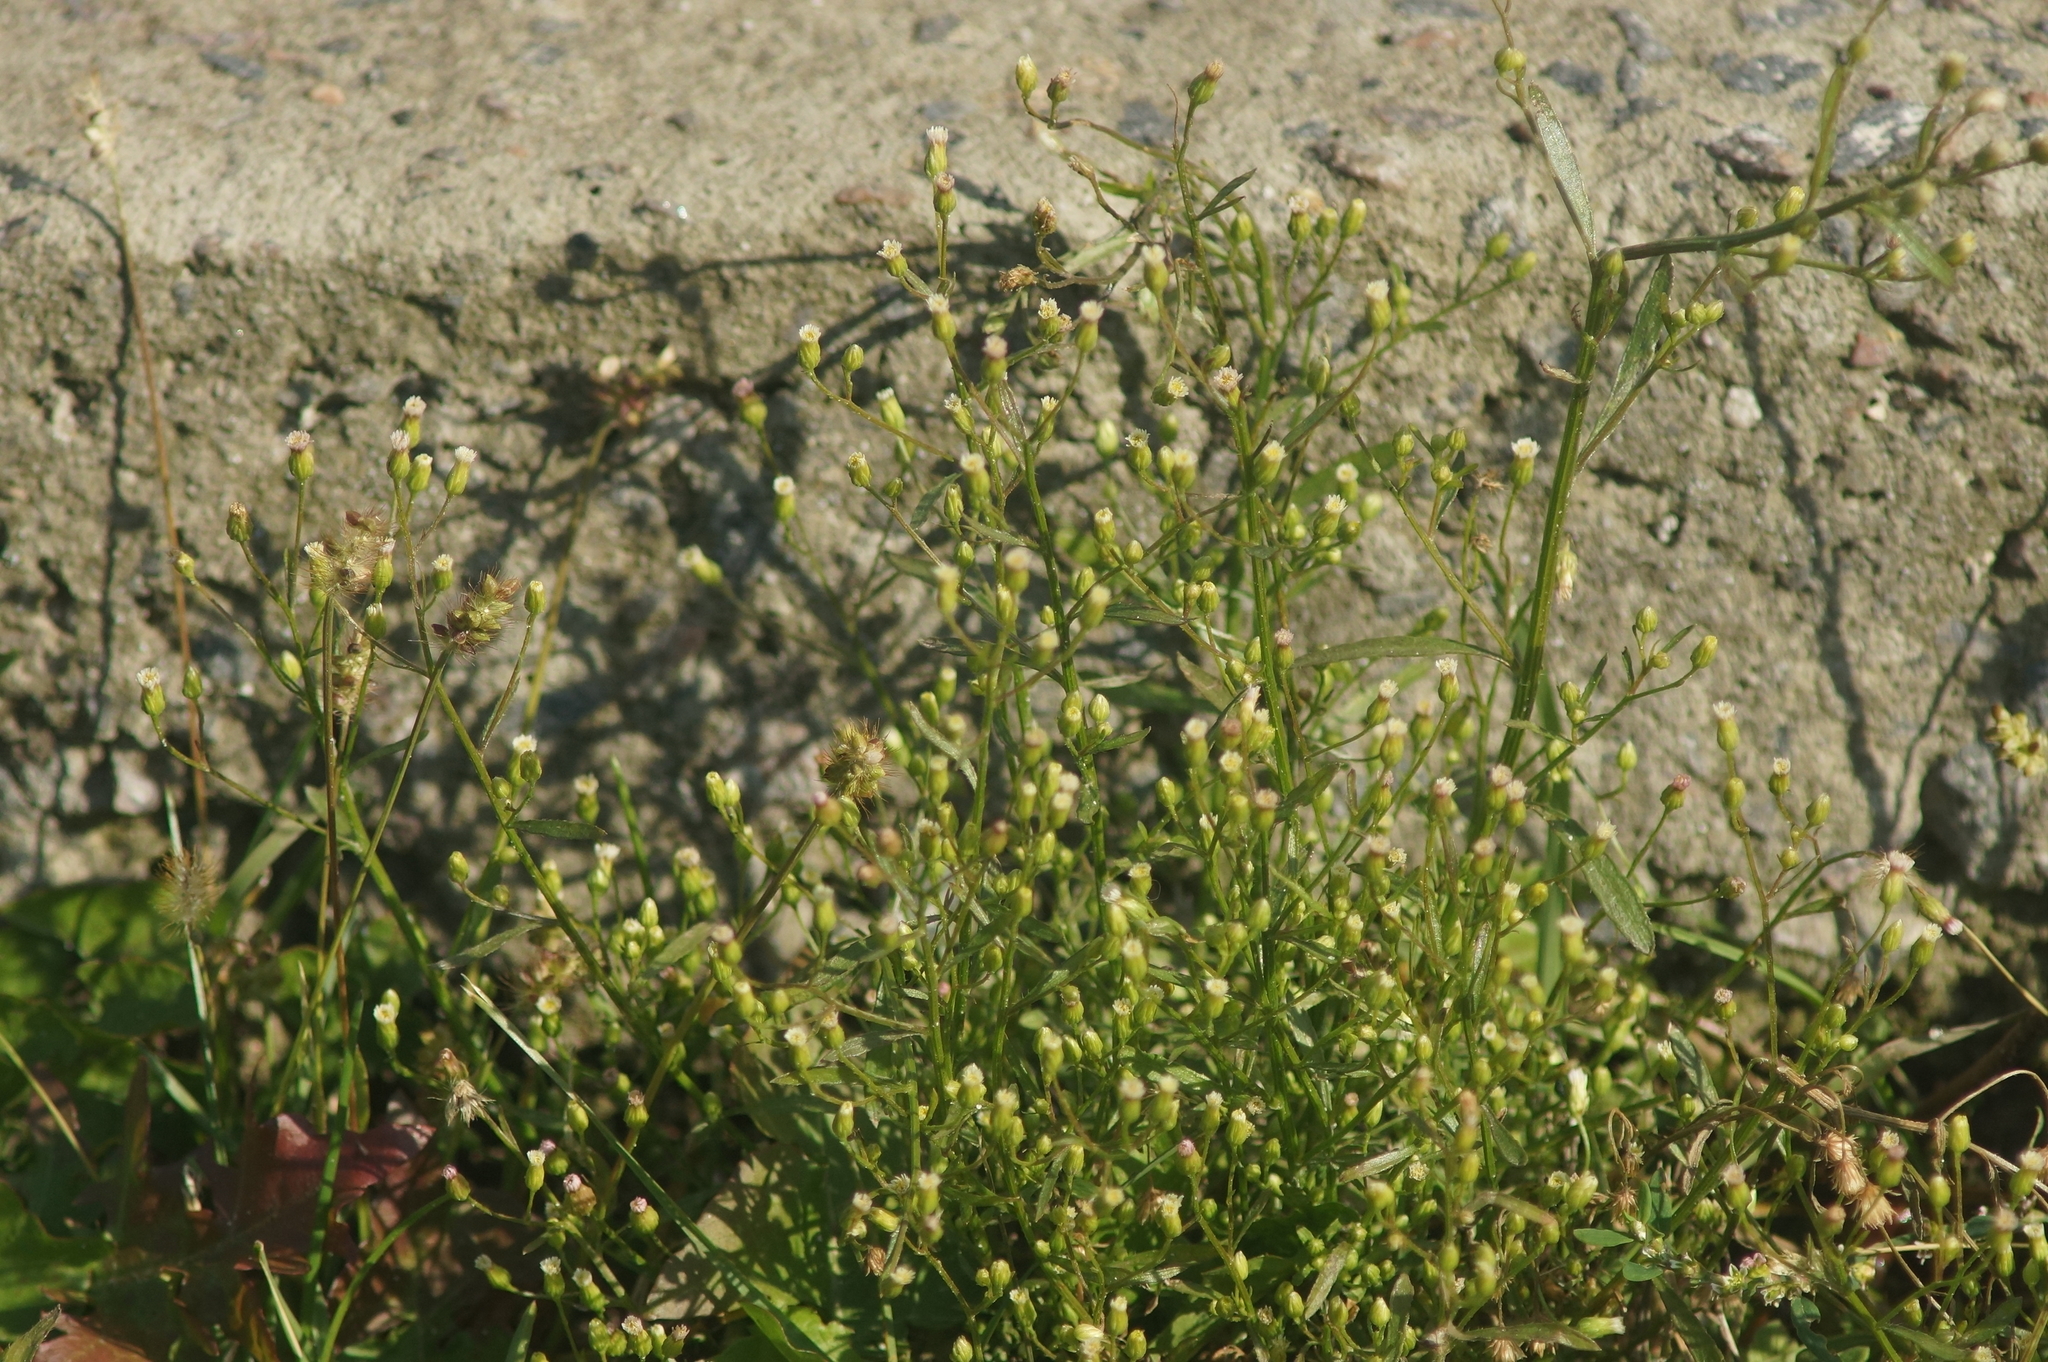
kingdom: Plantae
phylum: Tracheophyta
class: Magnoliopsida
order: Asterales
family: Asteraceae
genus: Erigeron
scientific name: Erigeron canadensis
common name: Canadian fleabane
